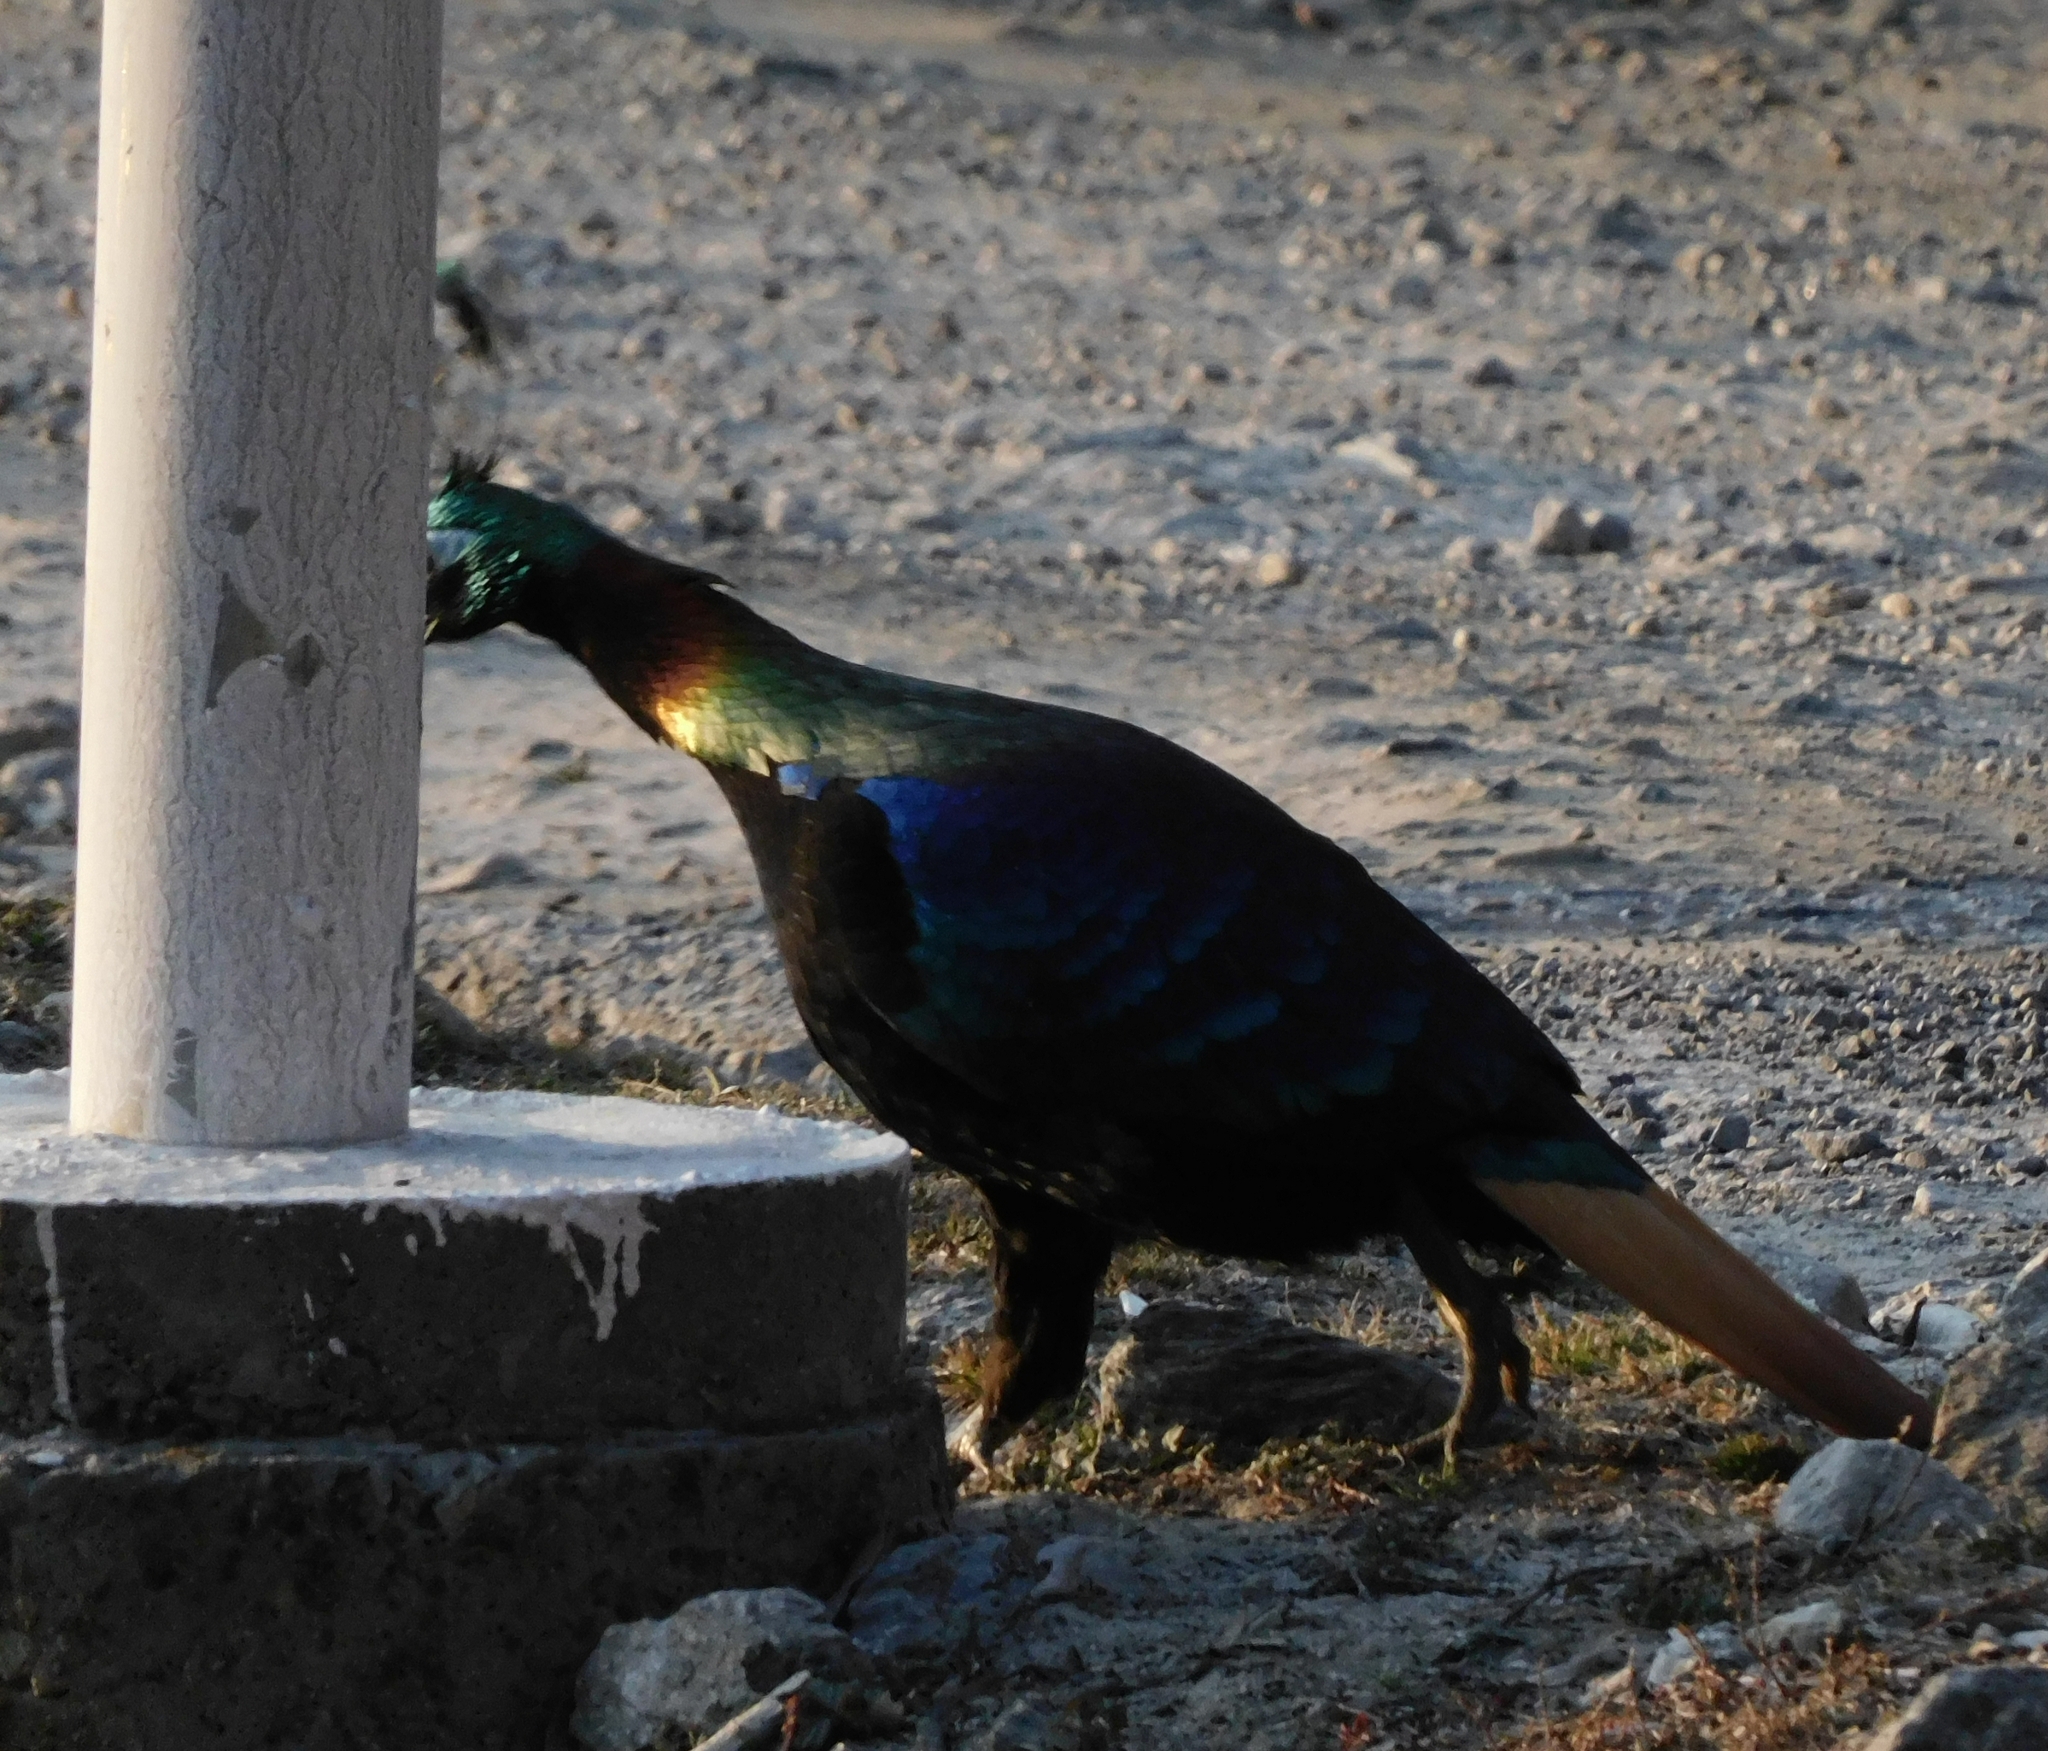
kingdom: Animalia
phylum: Chordata
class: Aves
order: Galliformes
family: Phasianidae
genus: Lophophorus
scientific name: Lophophorus impejanus
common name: Himalayan monal
